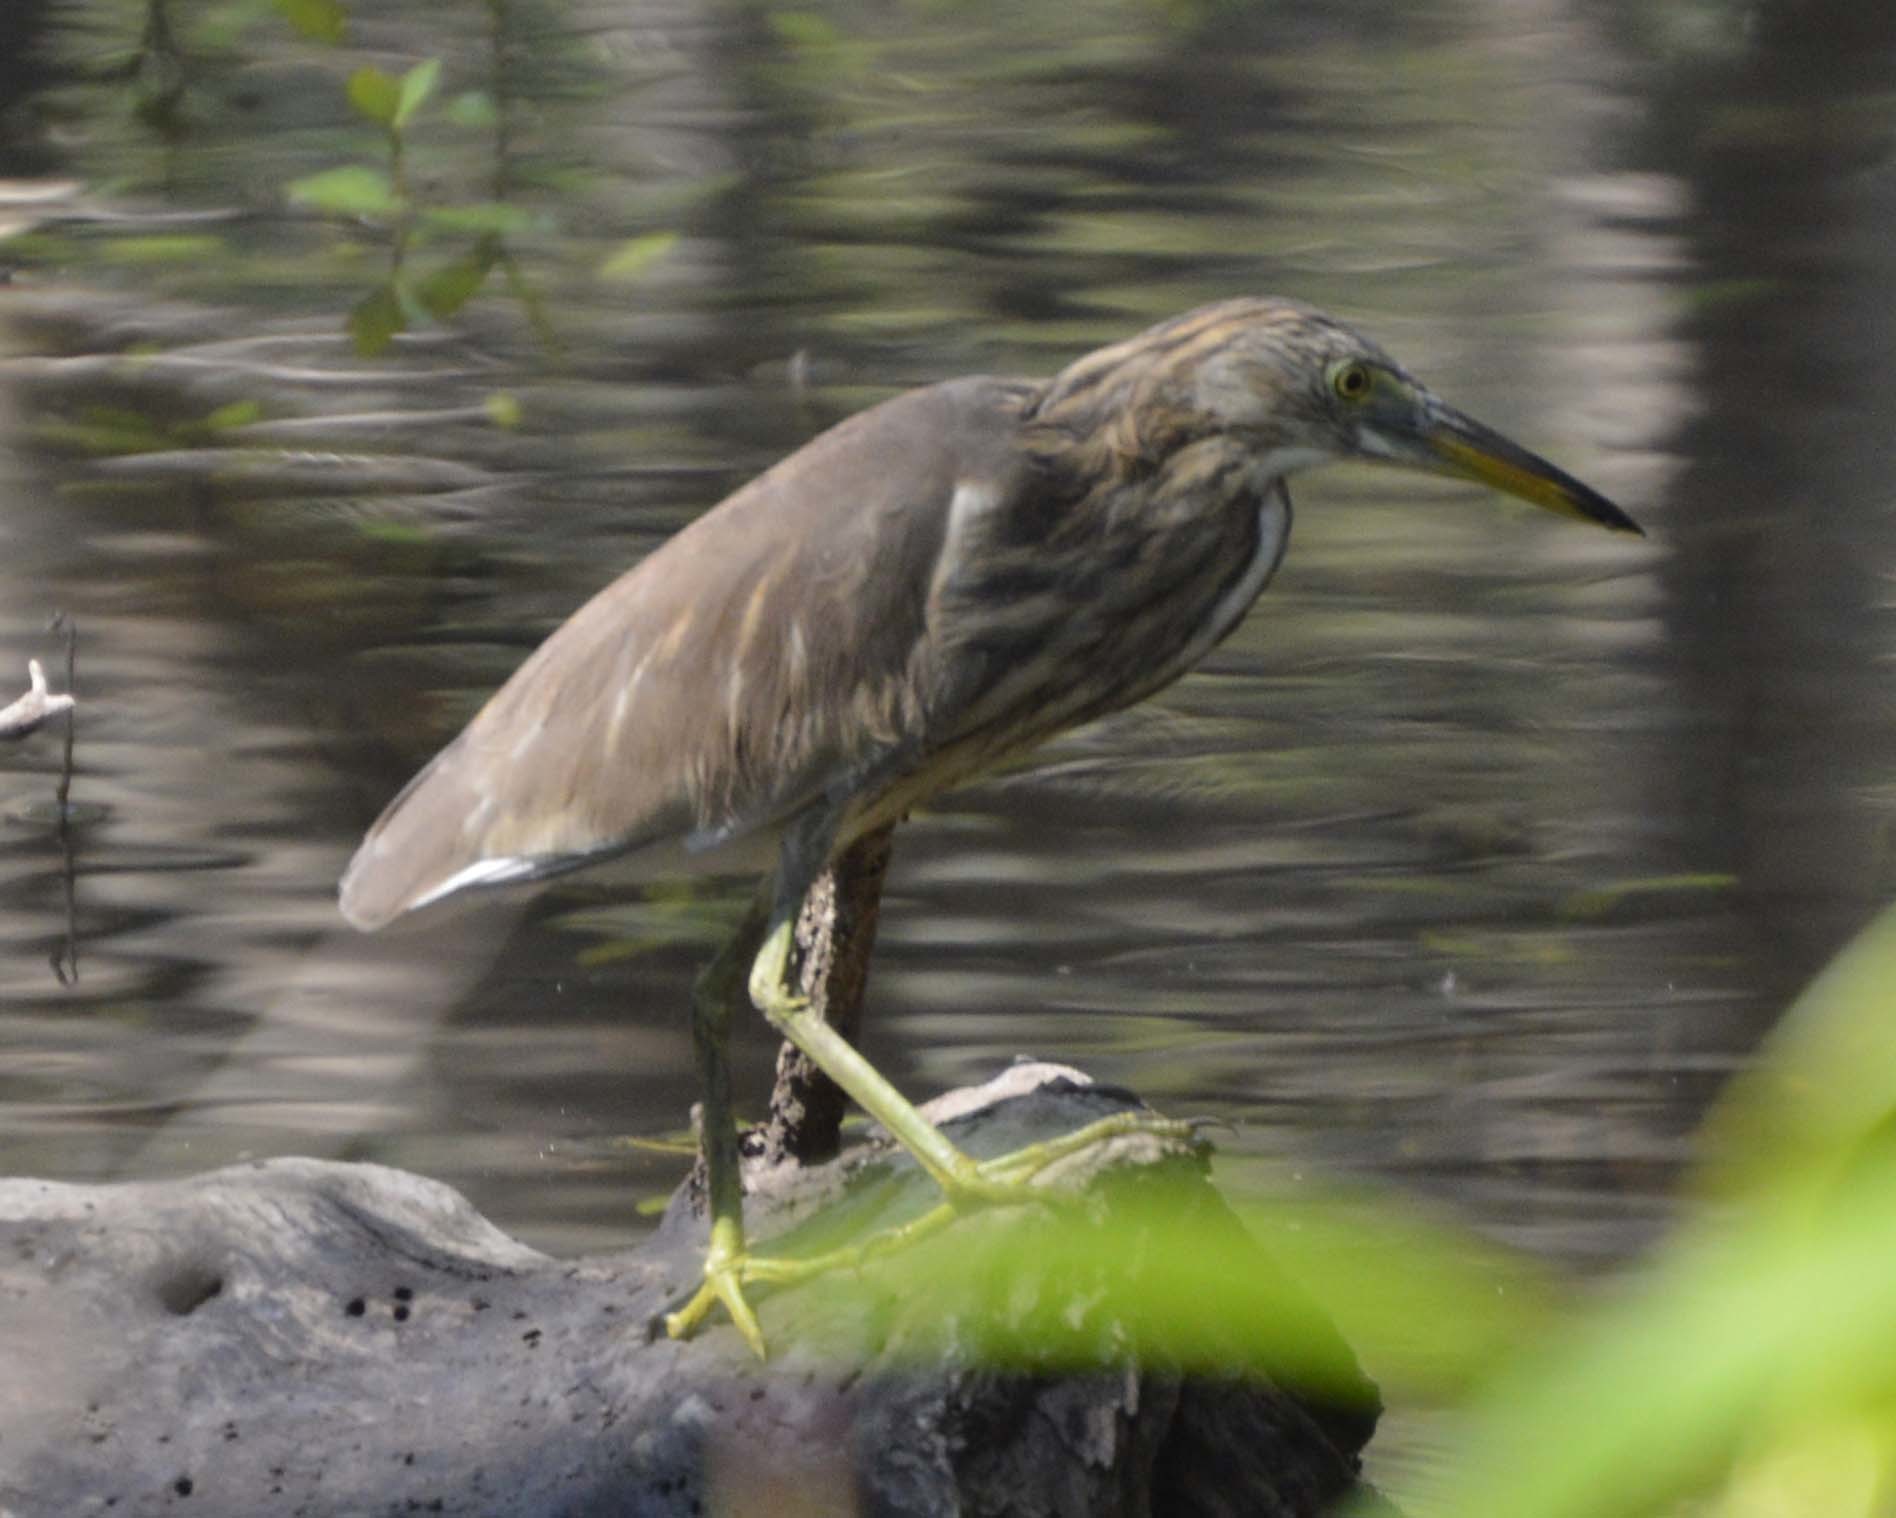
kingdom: Animalia
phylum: Chordata
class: Aves
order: Pelecaniformes
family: Ardeidae
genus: Ardeola
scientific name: Ardeola grayii
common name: Indian pond heron
